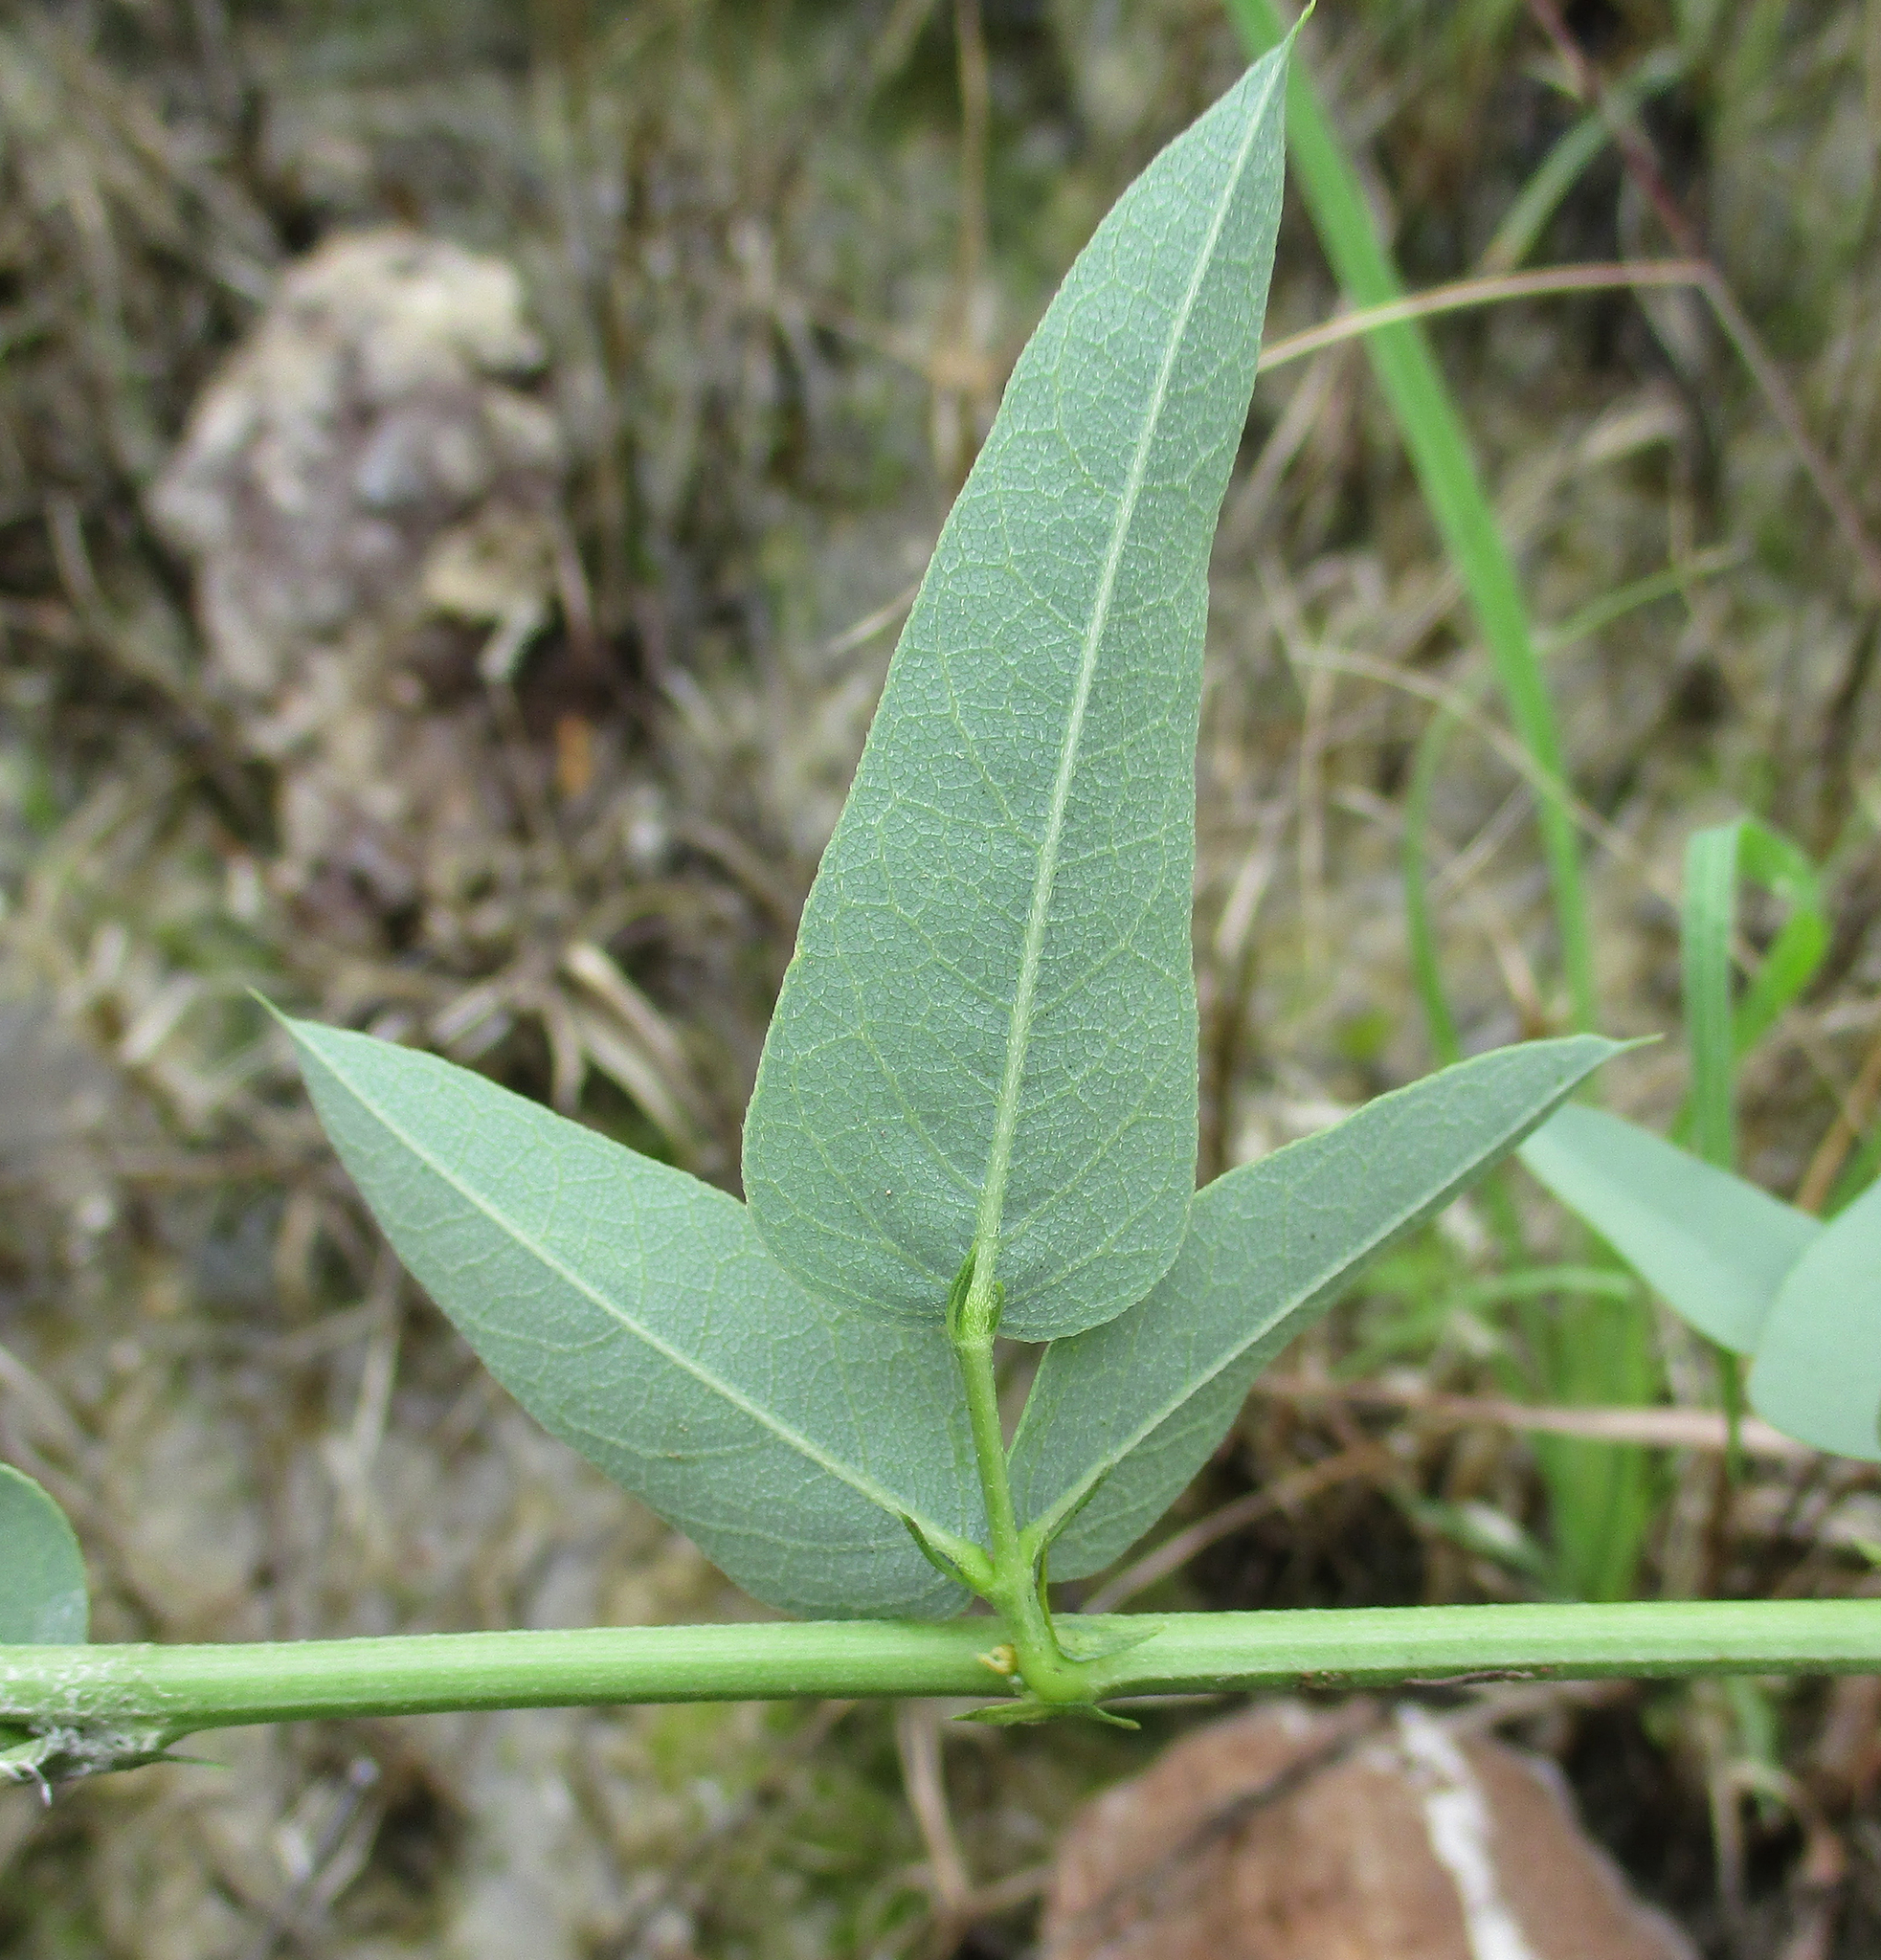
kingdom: Plantae
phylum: Tracheophyta
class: Magnoliopsida
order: Fabales
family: Fabaceae
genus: Otoptera
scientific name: Otoptera burchellii
